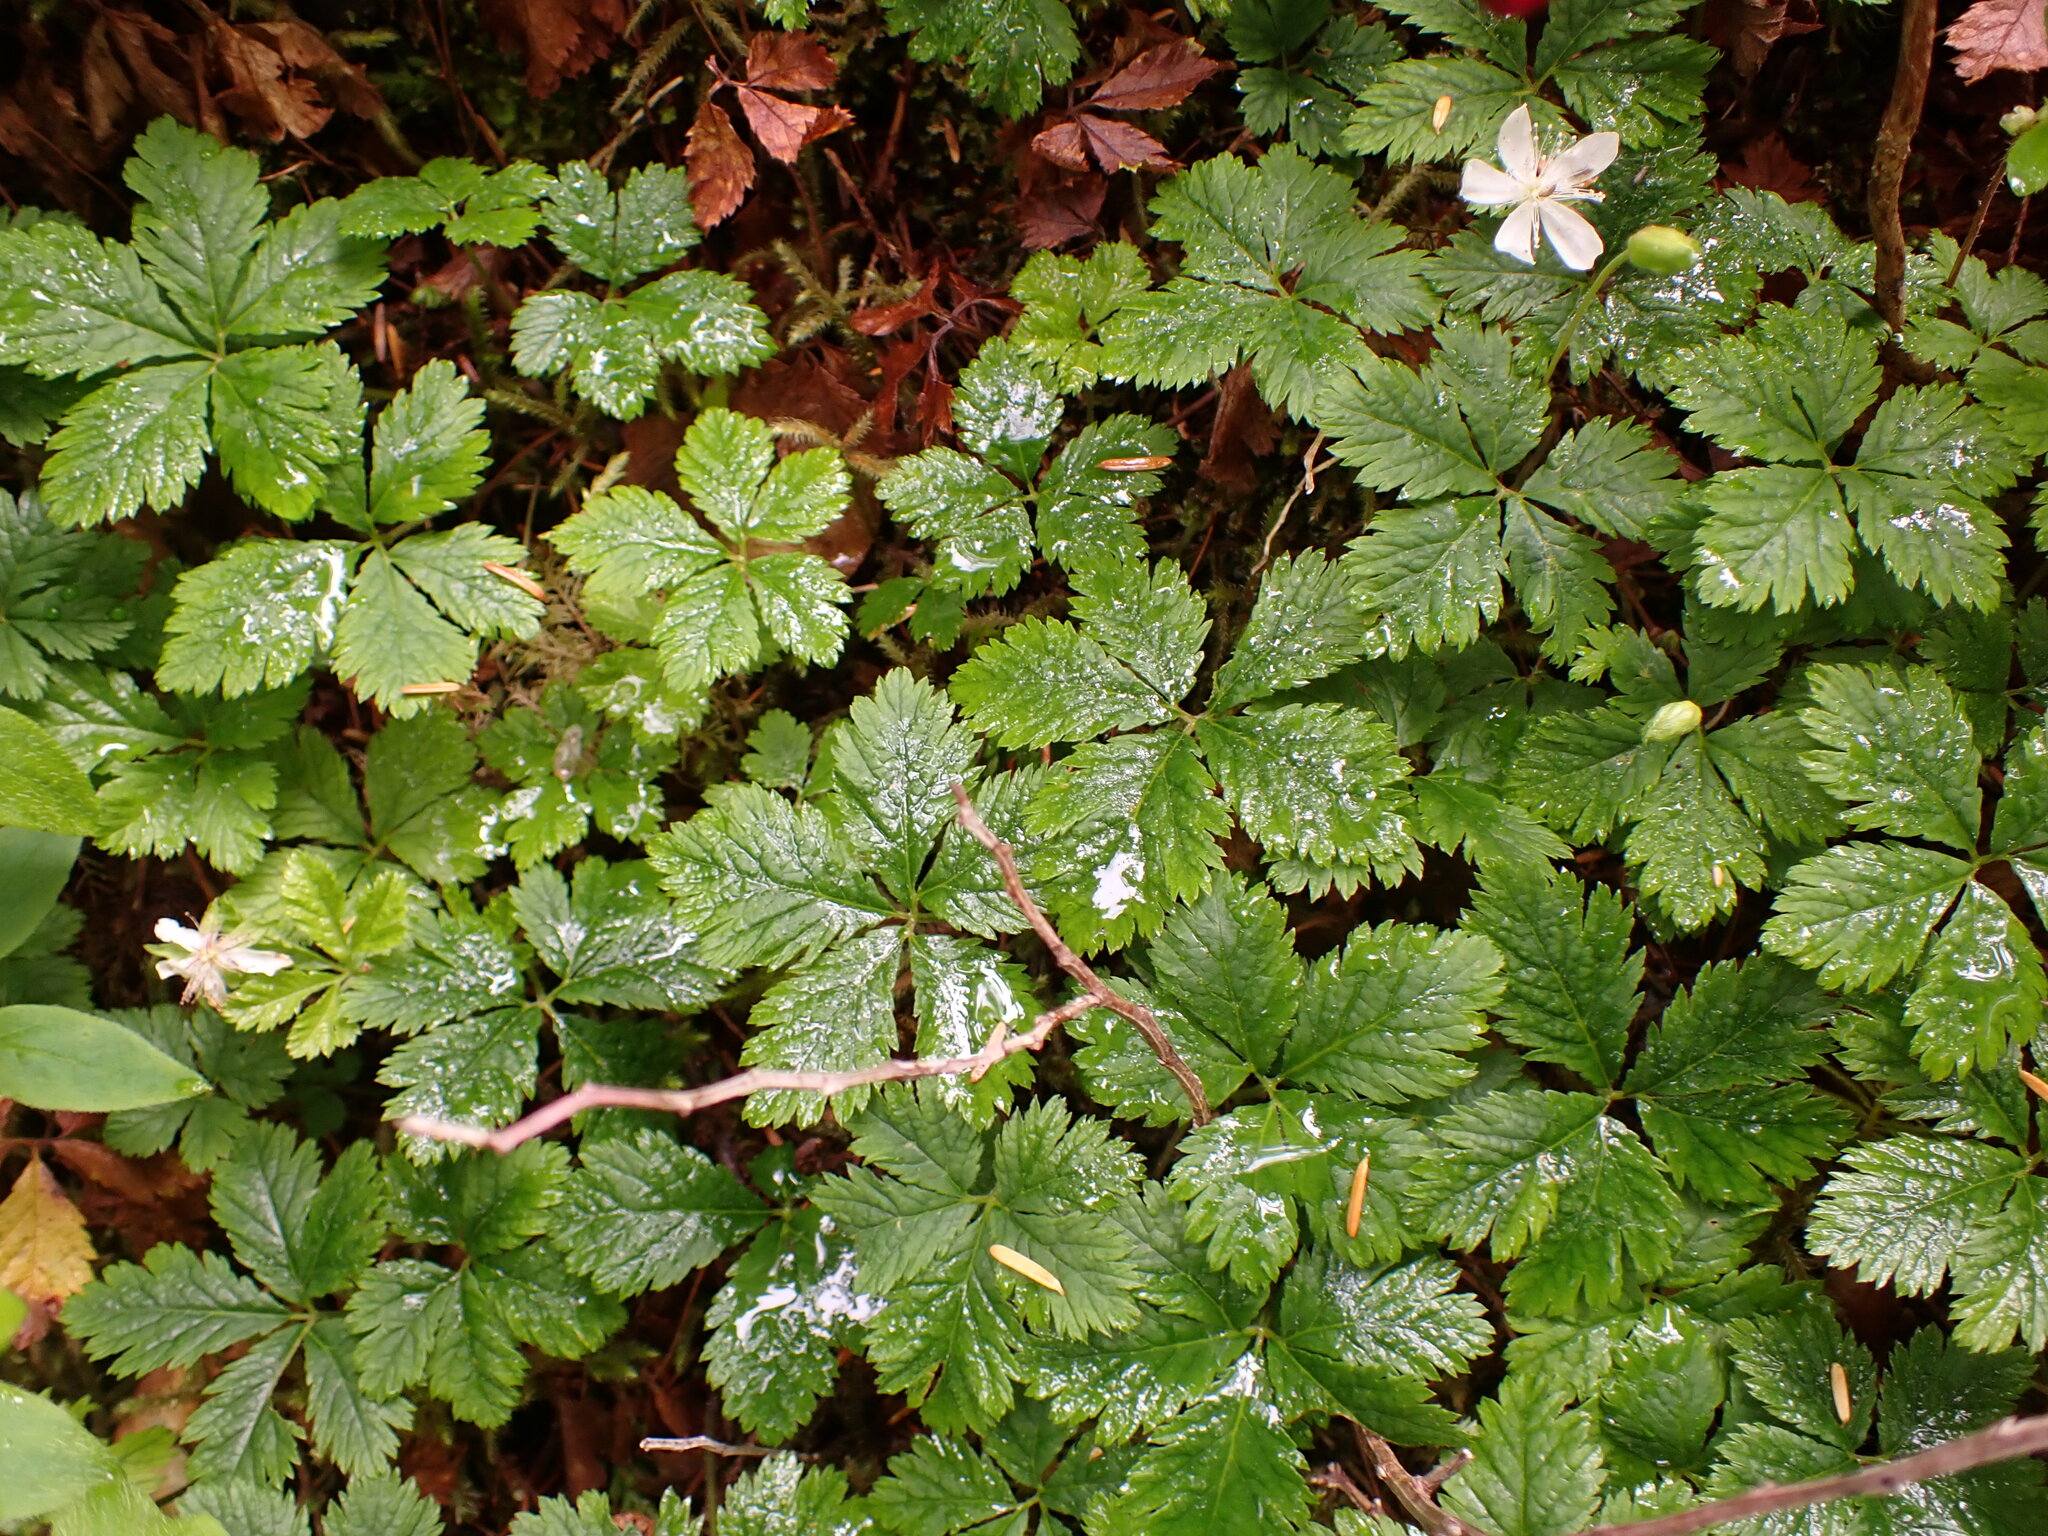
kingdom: Plantae
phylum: Tracheophyta
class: Magnoliopsida
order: Rosales
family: Rosaceae
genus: Rubus
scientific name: Rubus pedatus
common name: Creeping raspberry
